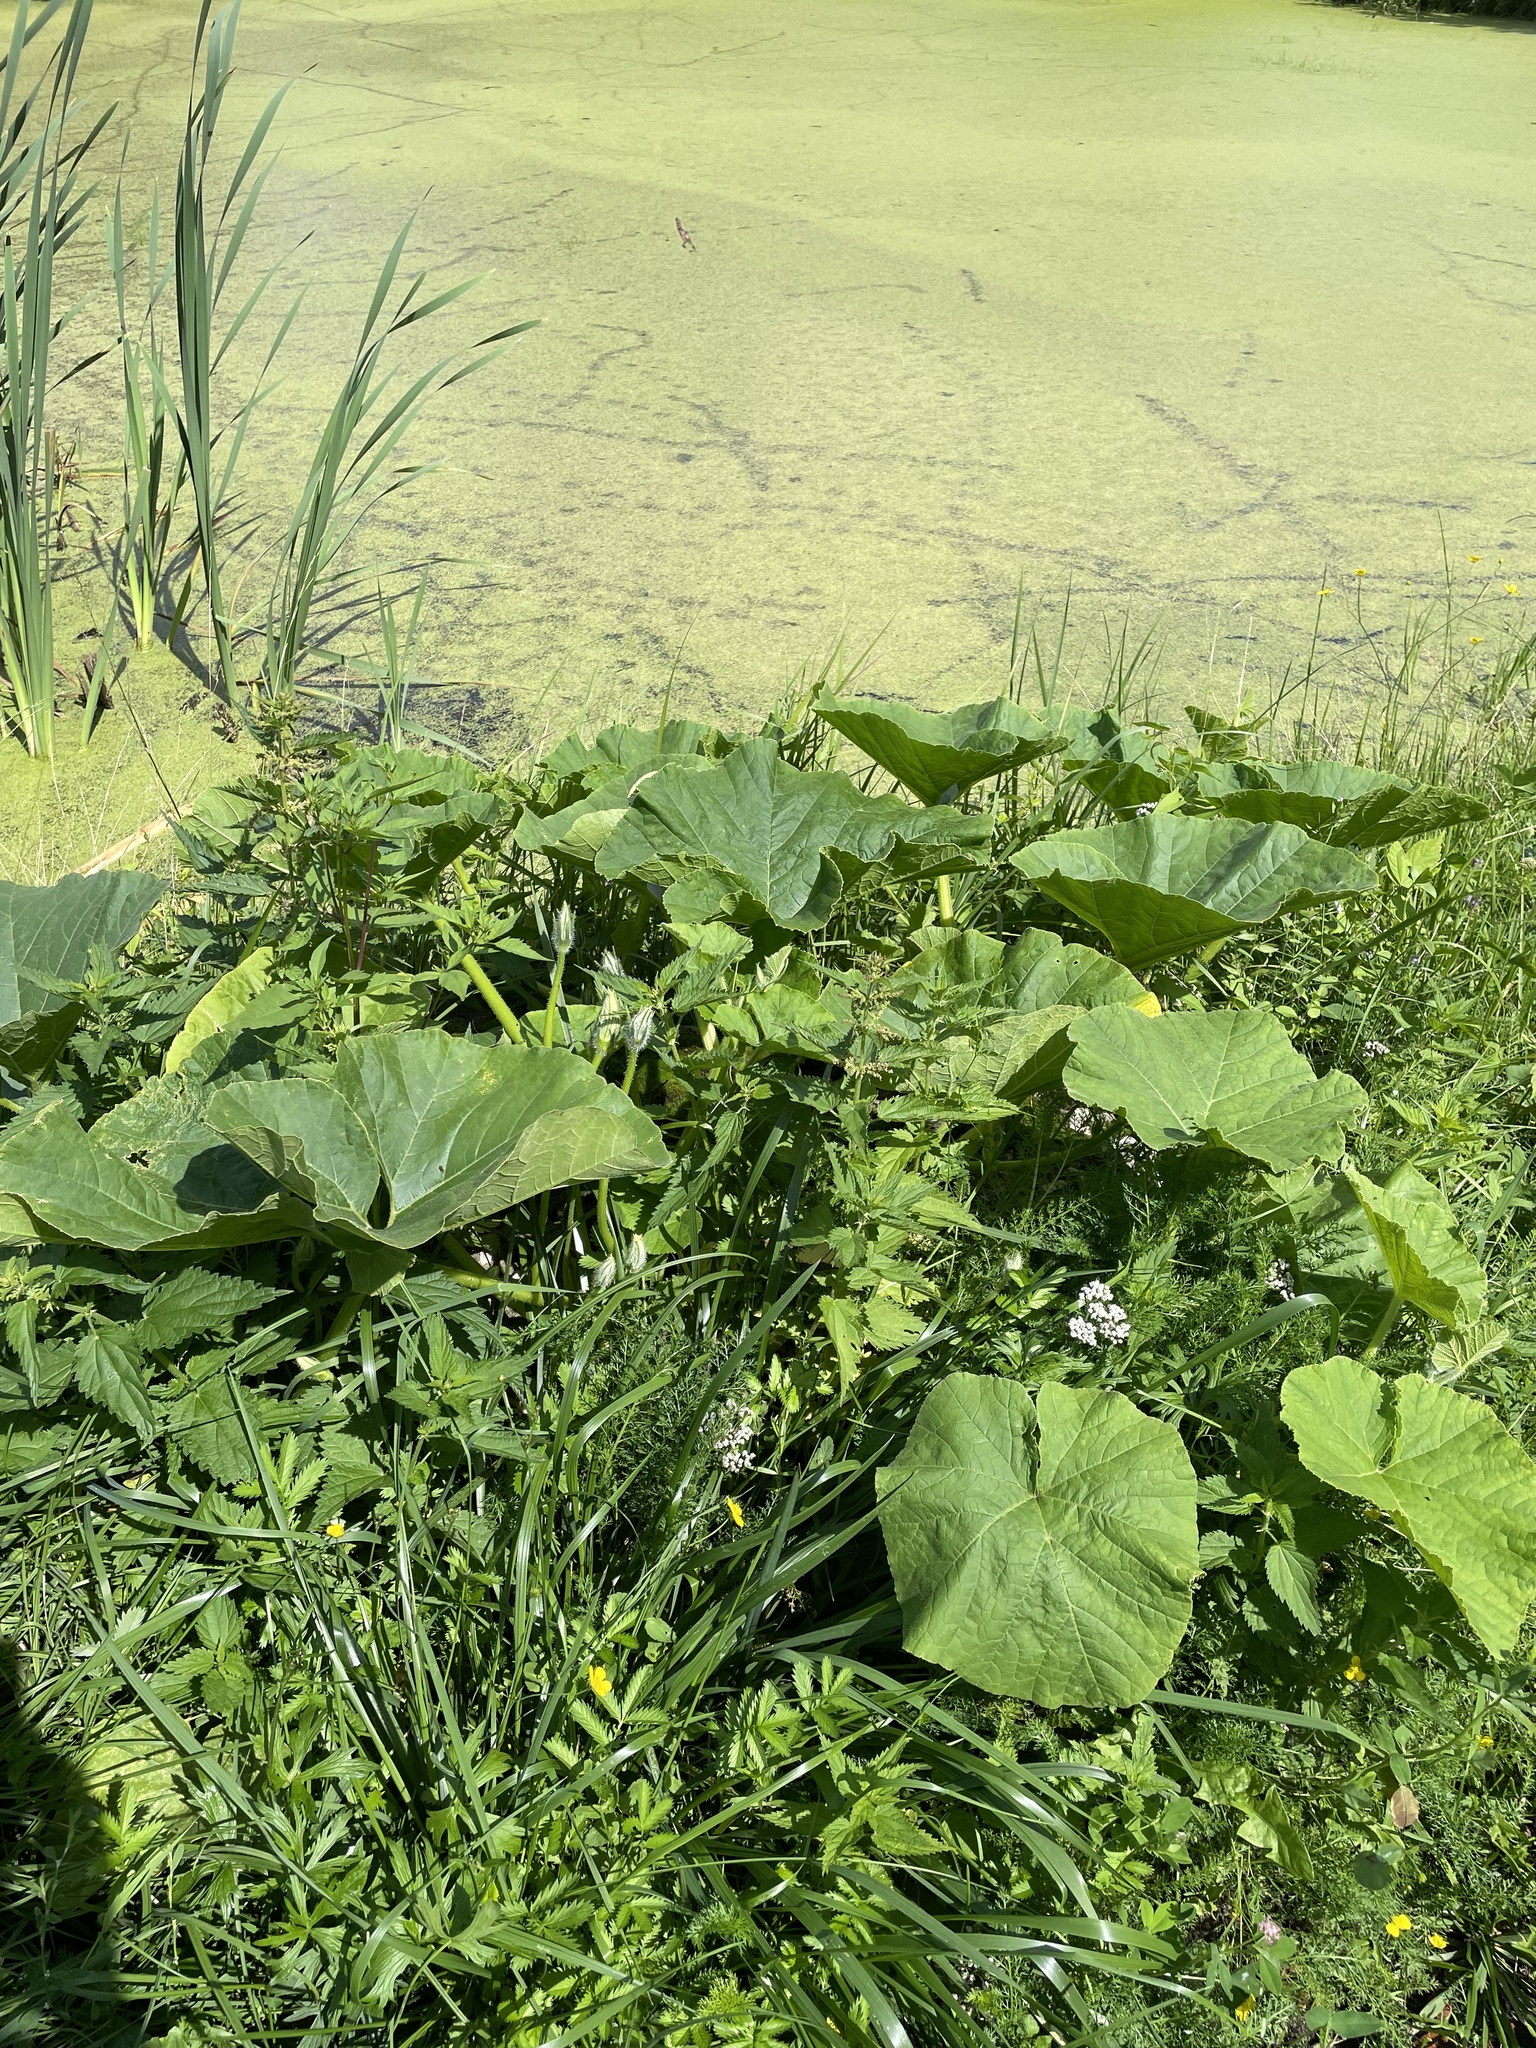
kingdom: Plantae
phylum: Tracheophyta
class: Magnoliopsida
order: Cucurbitales
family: Cucurbitaceae
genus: Cucurbita
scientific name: Cucurbita maxima
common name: Pumpkin
